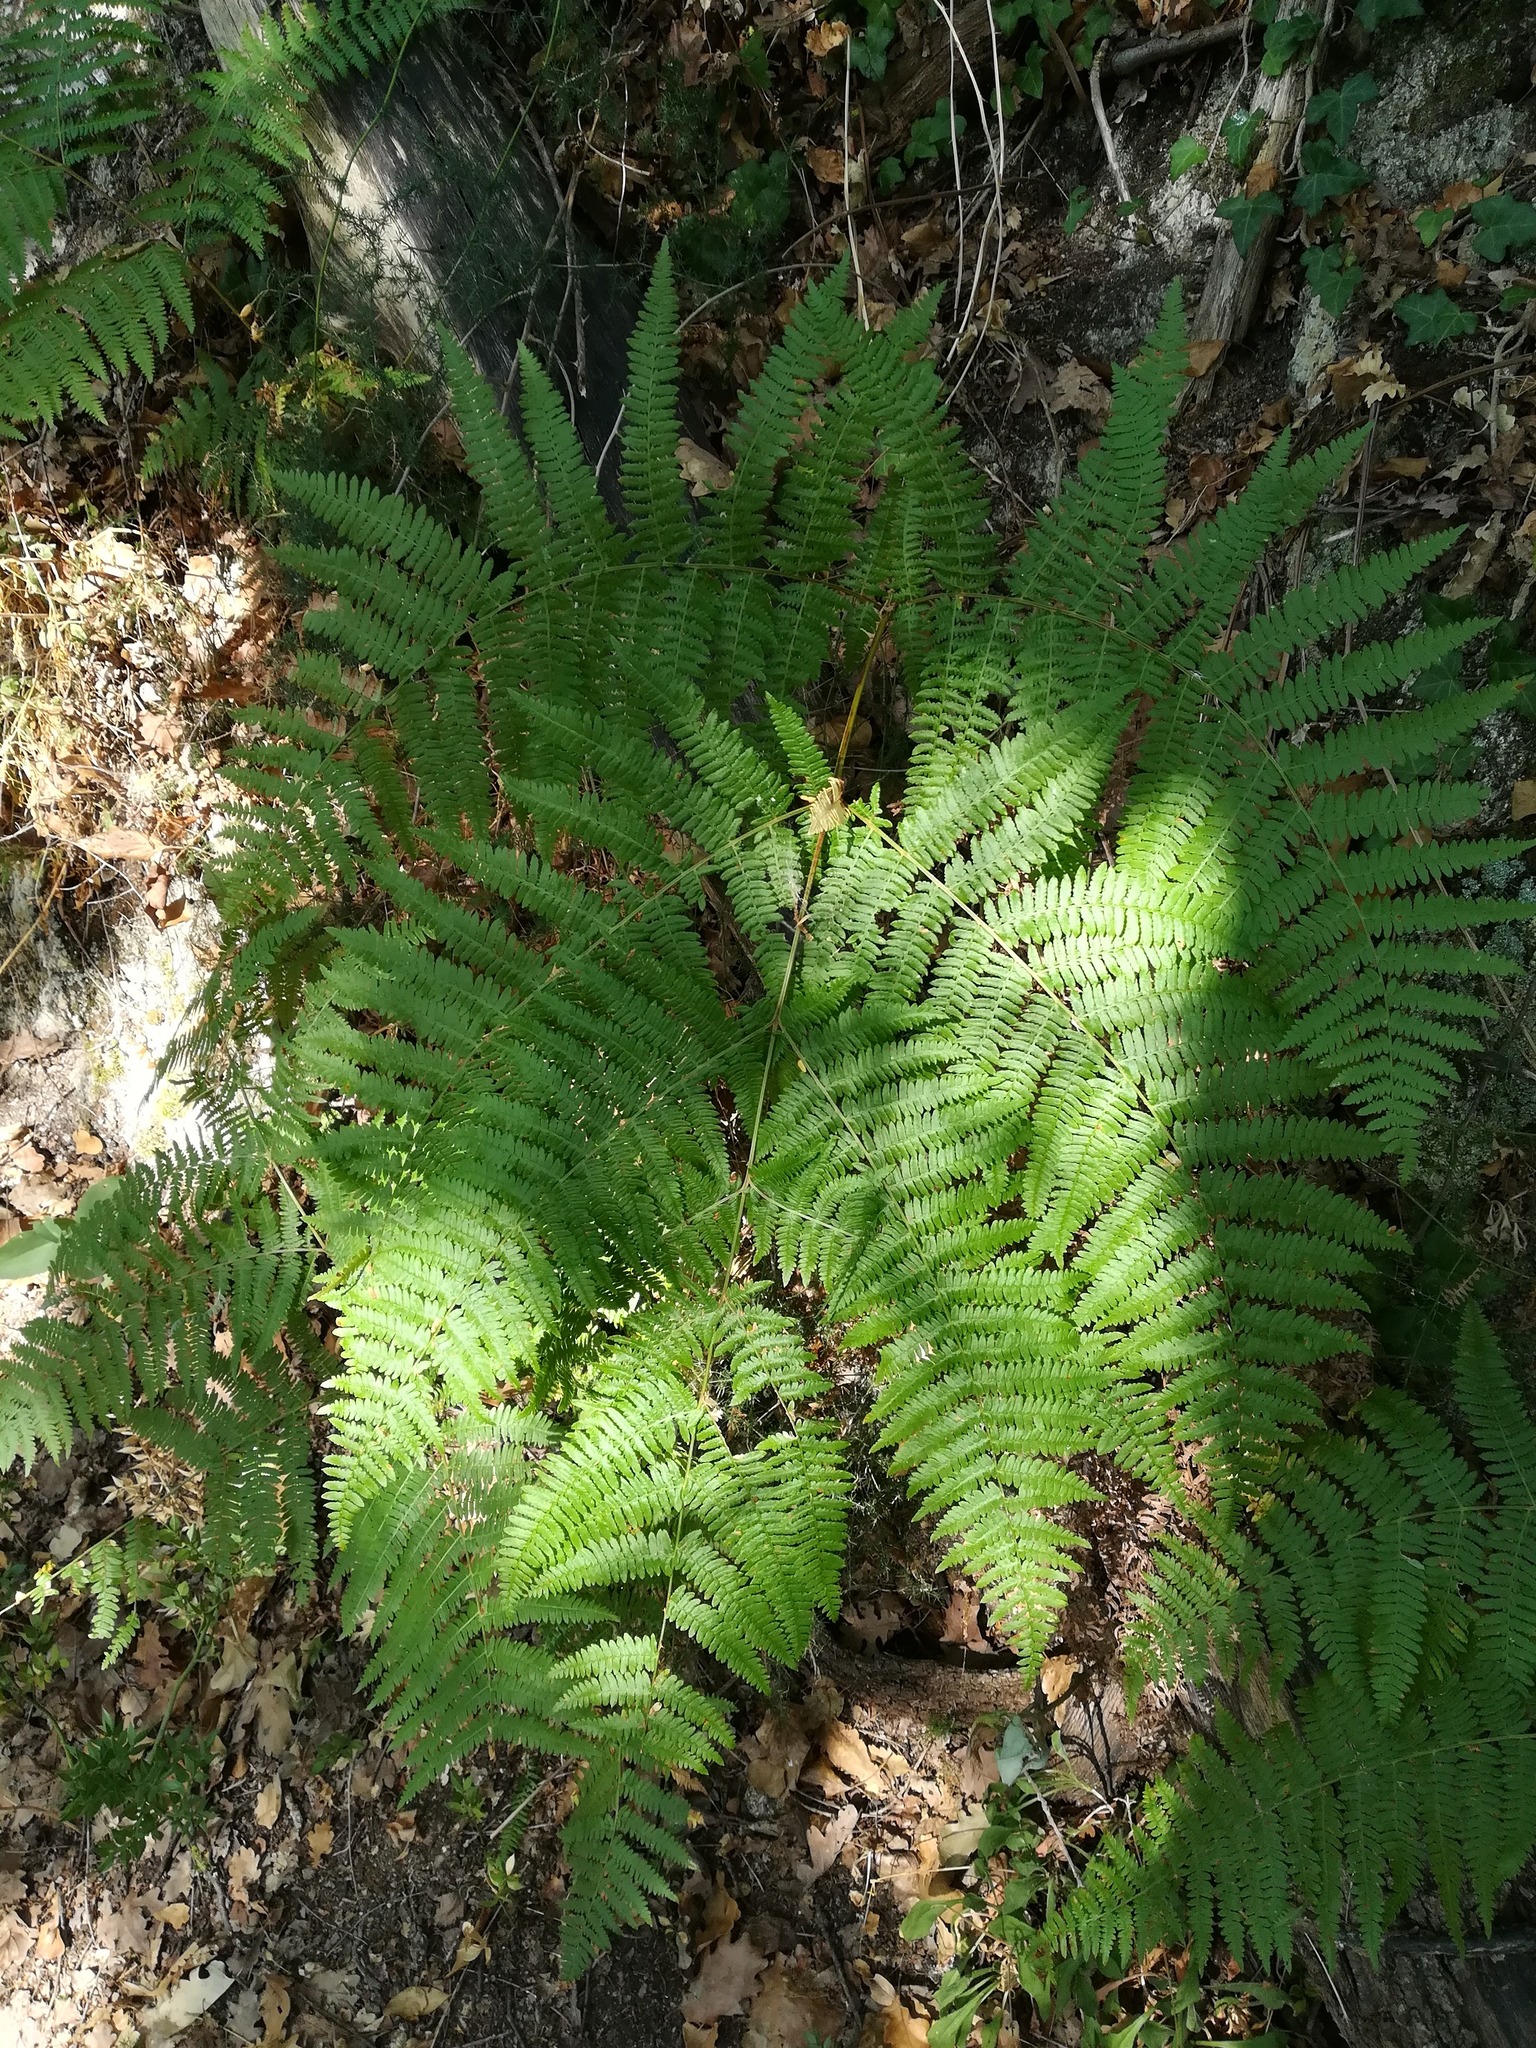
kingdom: Plantae
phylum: Tracheophyta
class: Polypodiopsida
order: Polypodiales
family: Dennstaedtiaceae
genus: Pteridium
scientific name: Pteridium aquilinum
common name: Bracken
